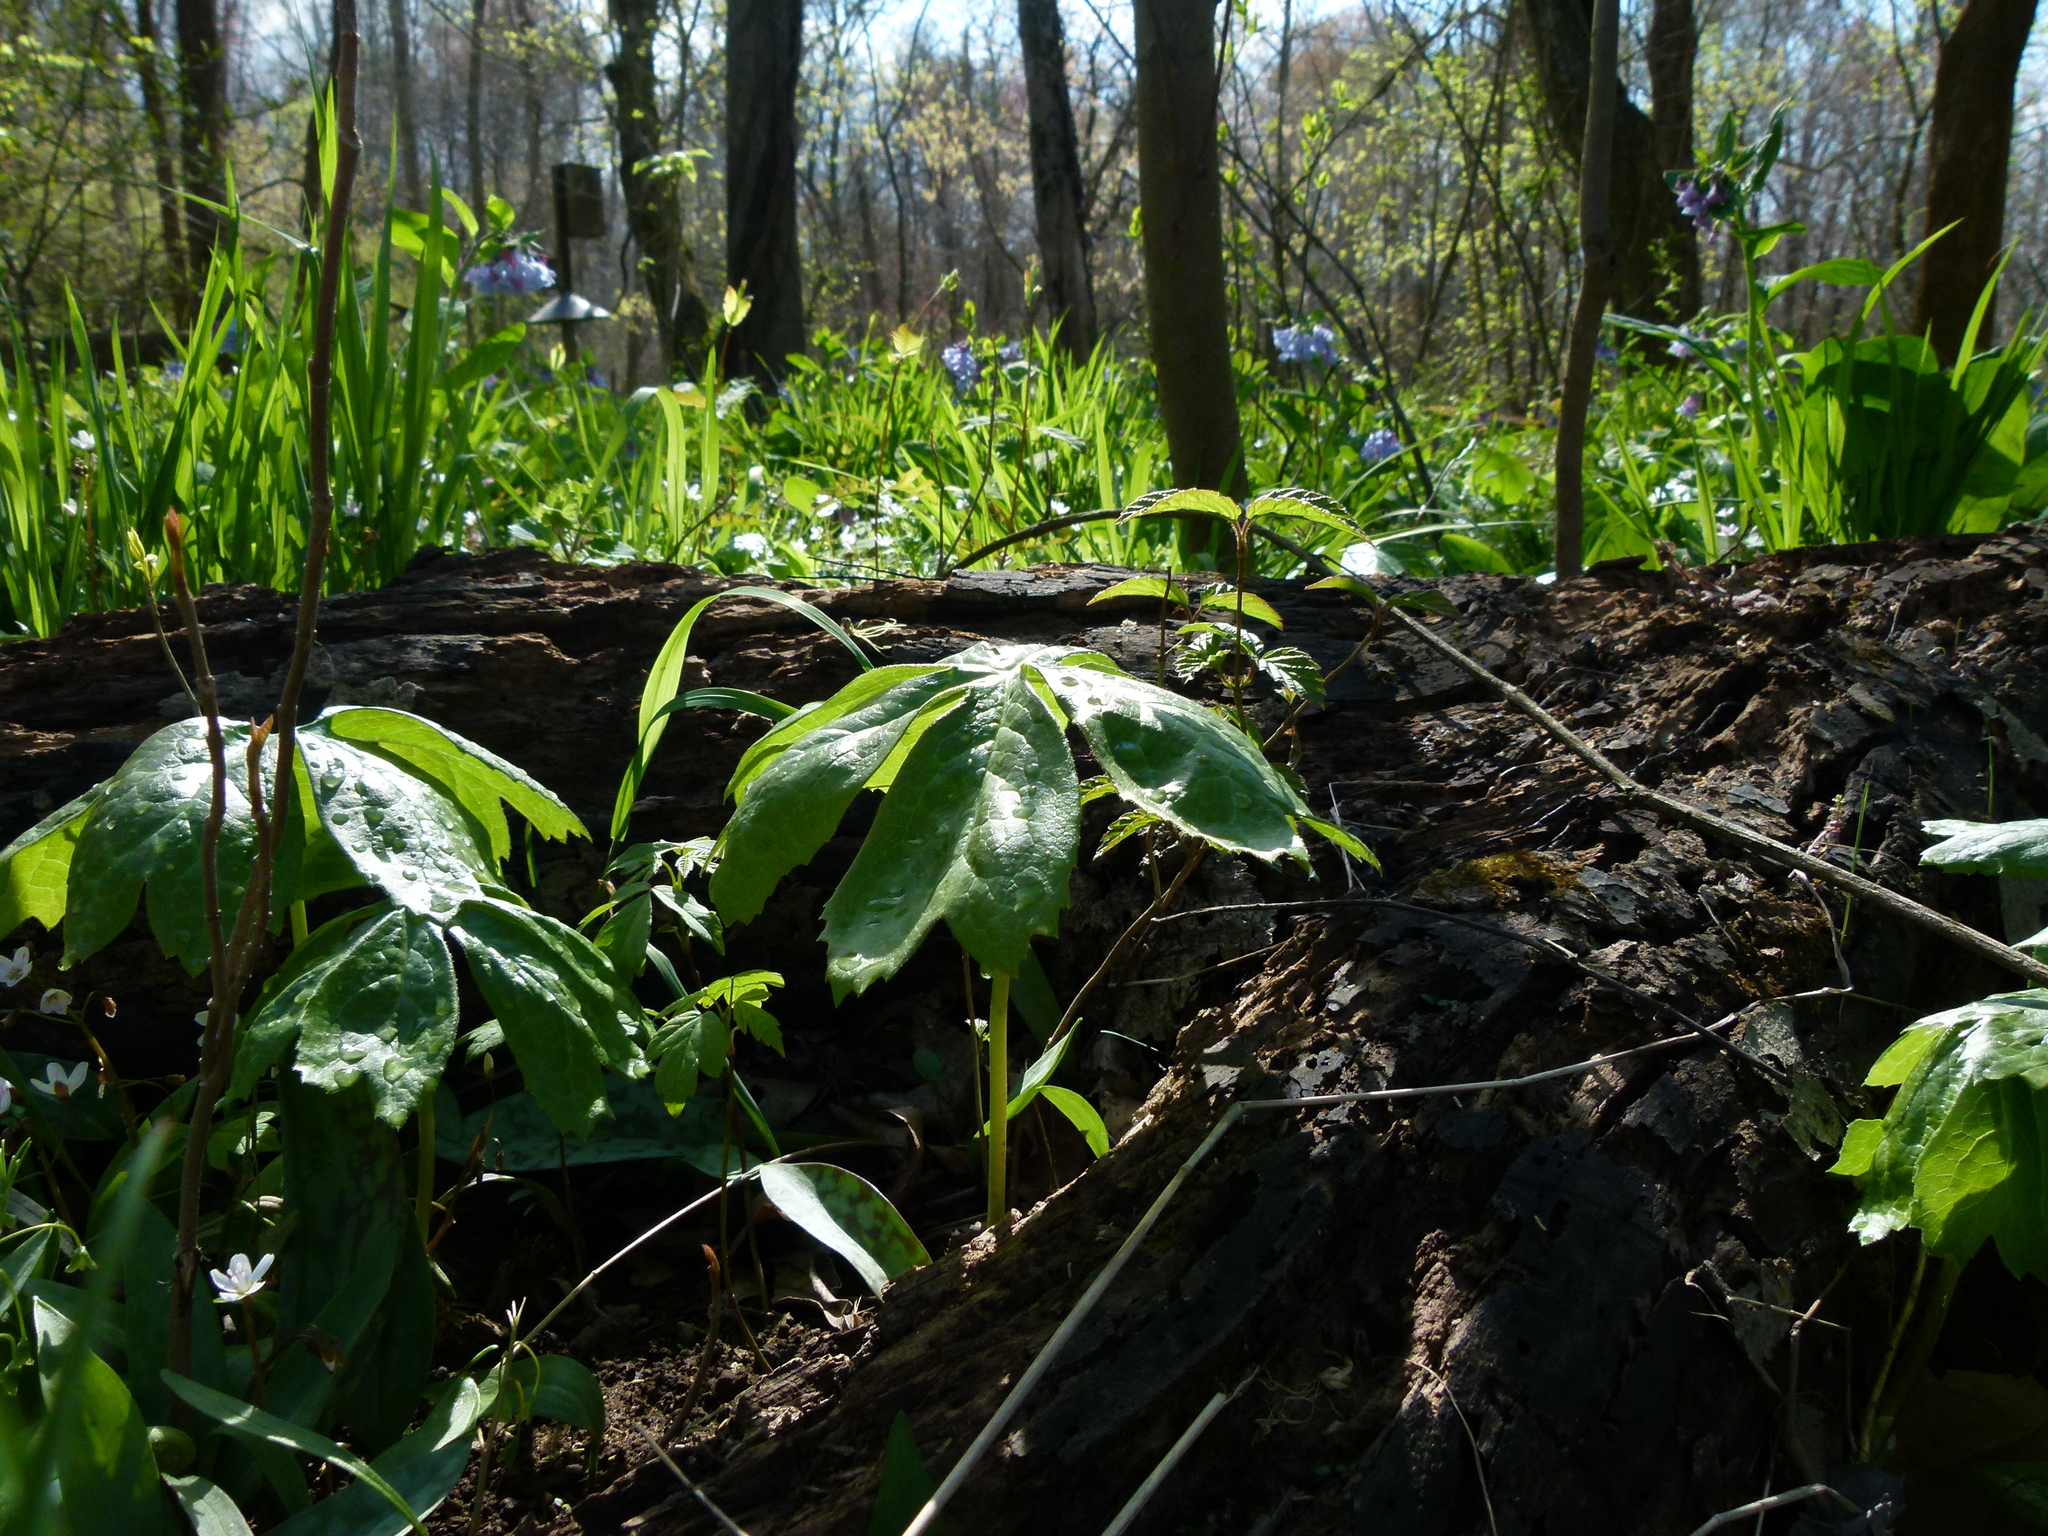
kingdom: Plantae
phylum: Tracheophyta
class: Magnoliopsida
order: Ranunculales
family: Berberidaceae
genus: Podophyllum
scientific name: Podophyllum peltatum
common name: Wild mandrake
